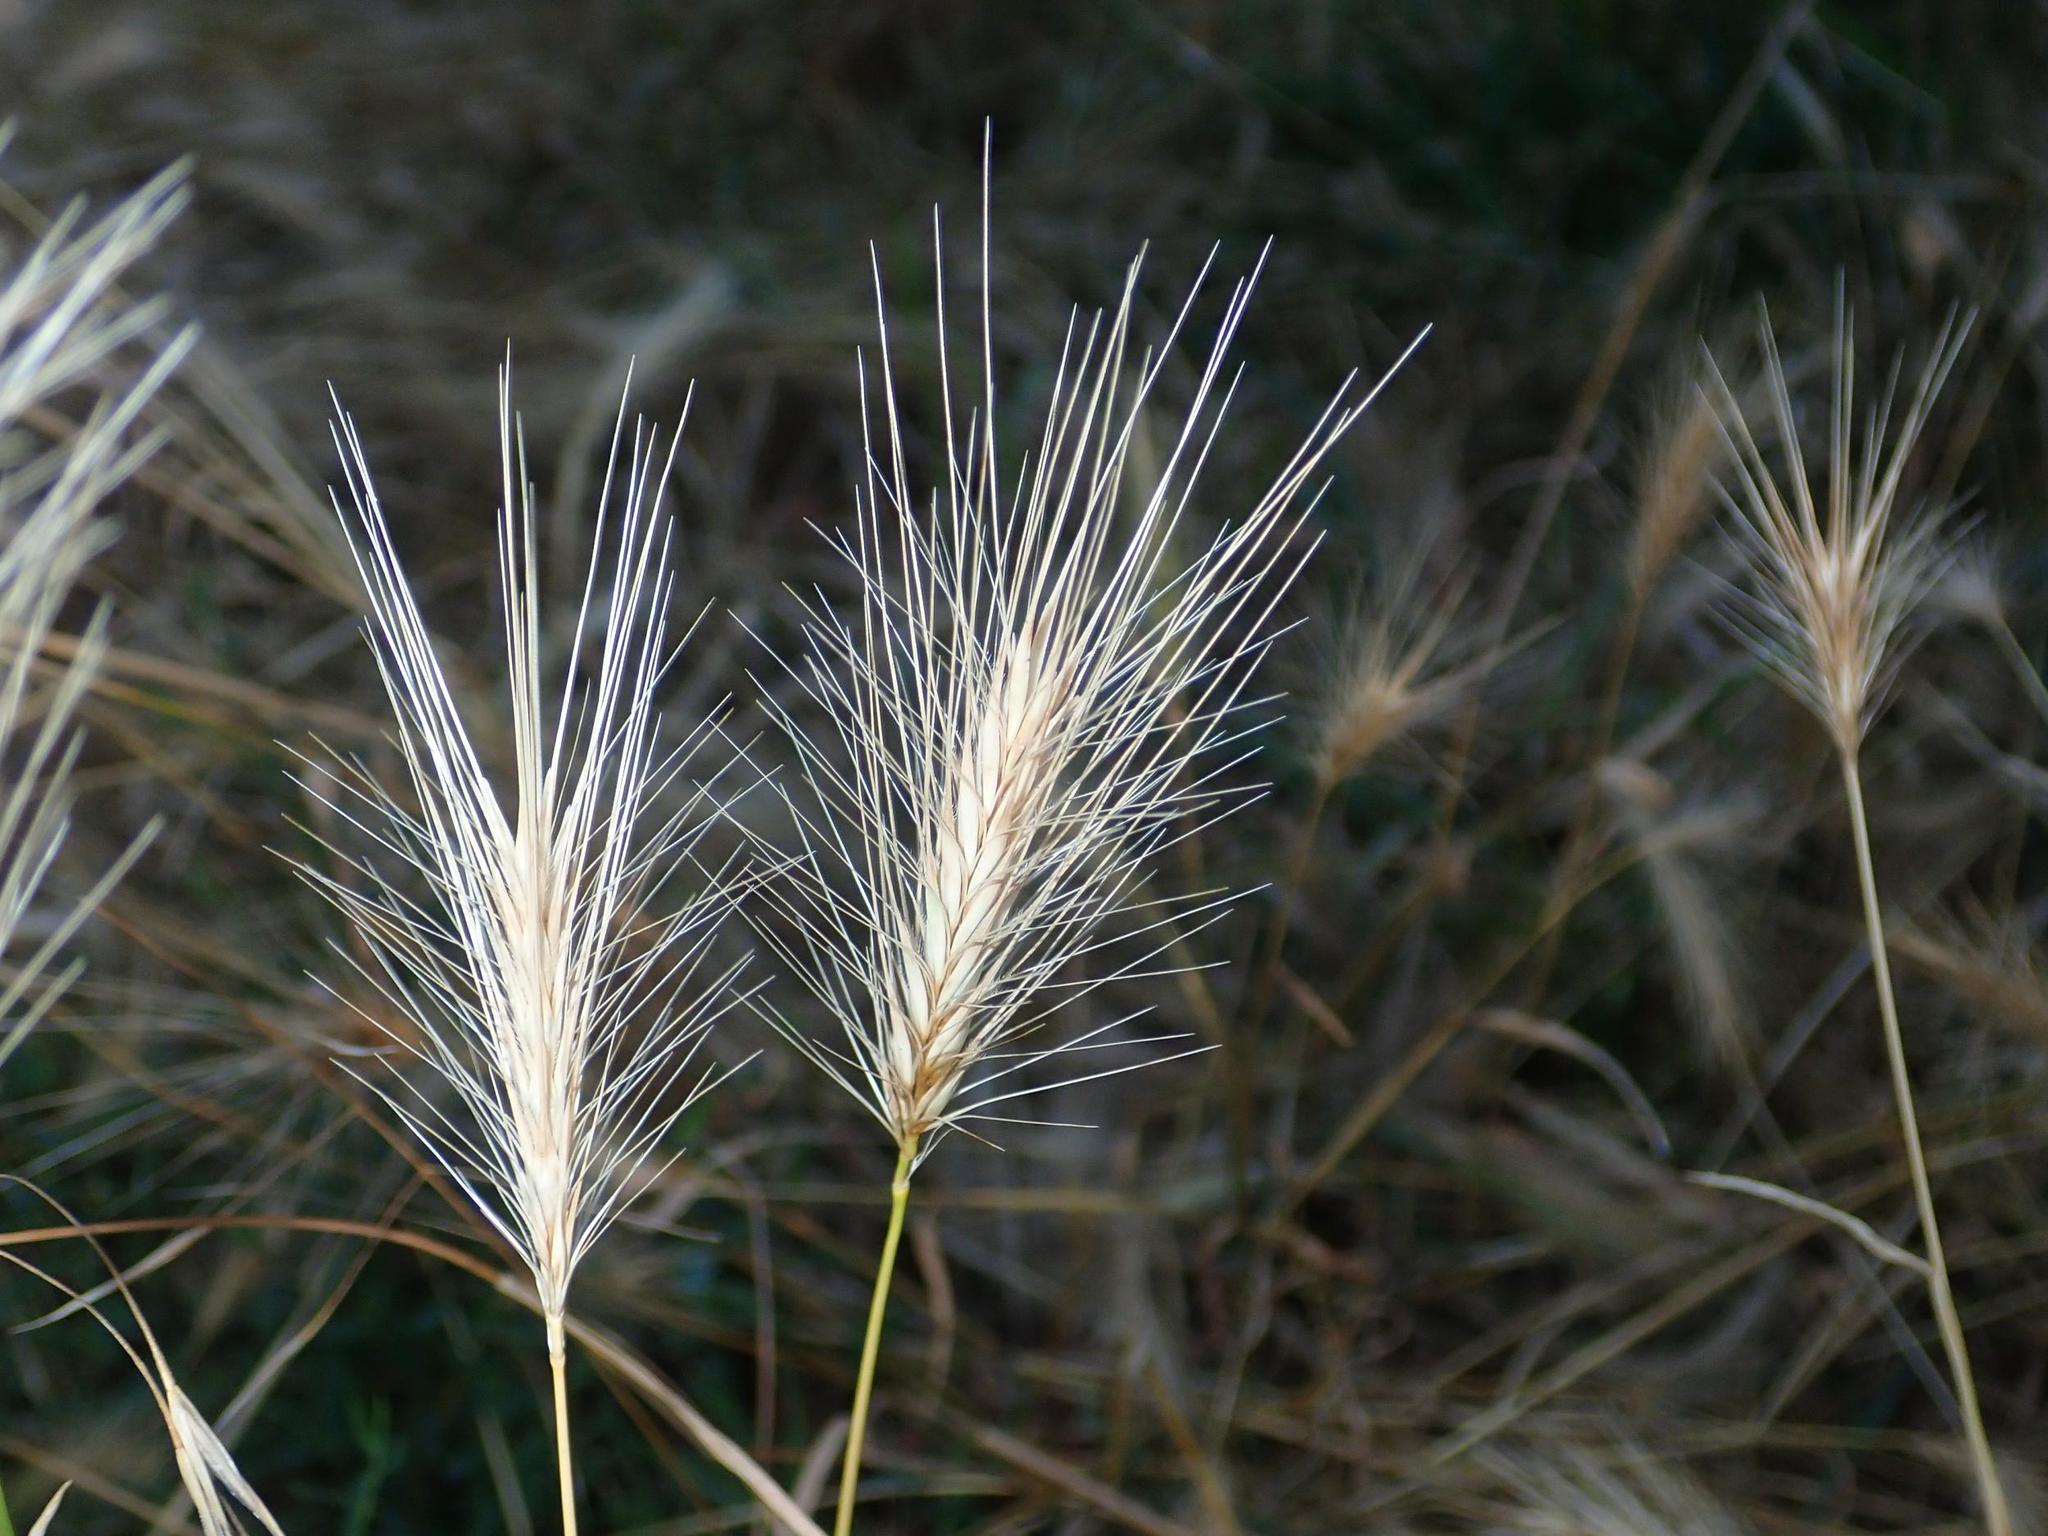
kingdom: Plantae
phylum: Tracheophyta
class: Liliopsida
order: Poales
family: Poaceae
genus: Hordeum
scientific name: Hordeum murinum
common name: Wall barley
